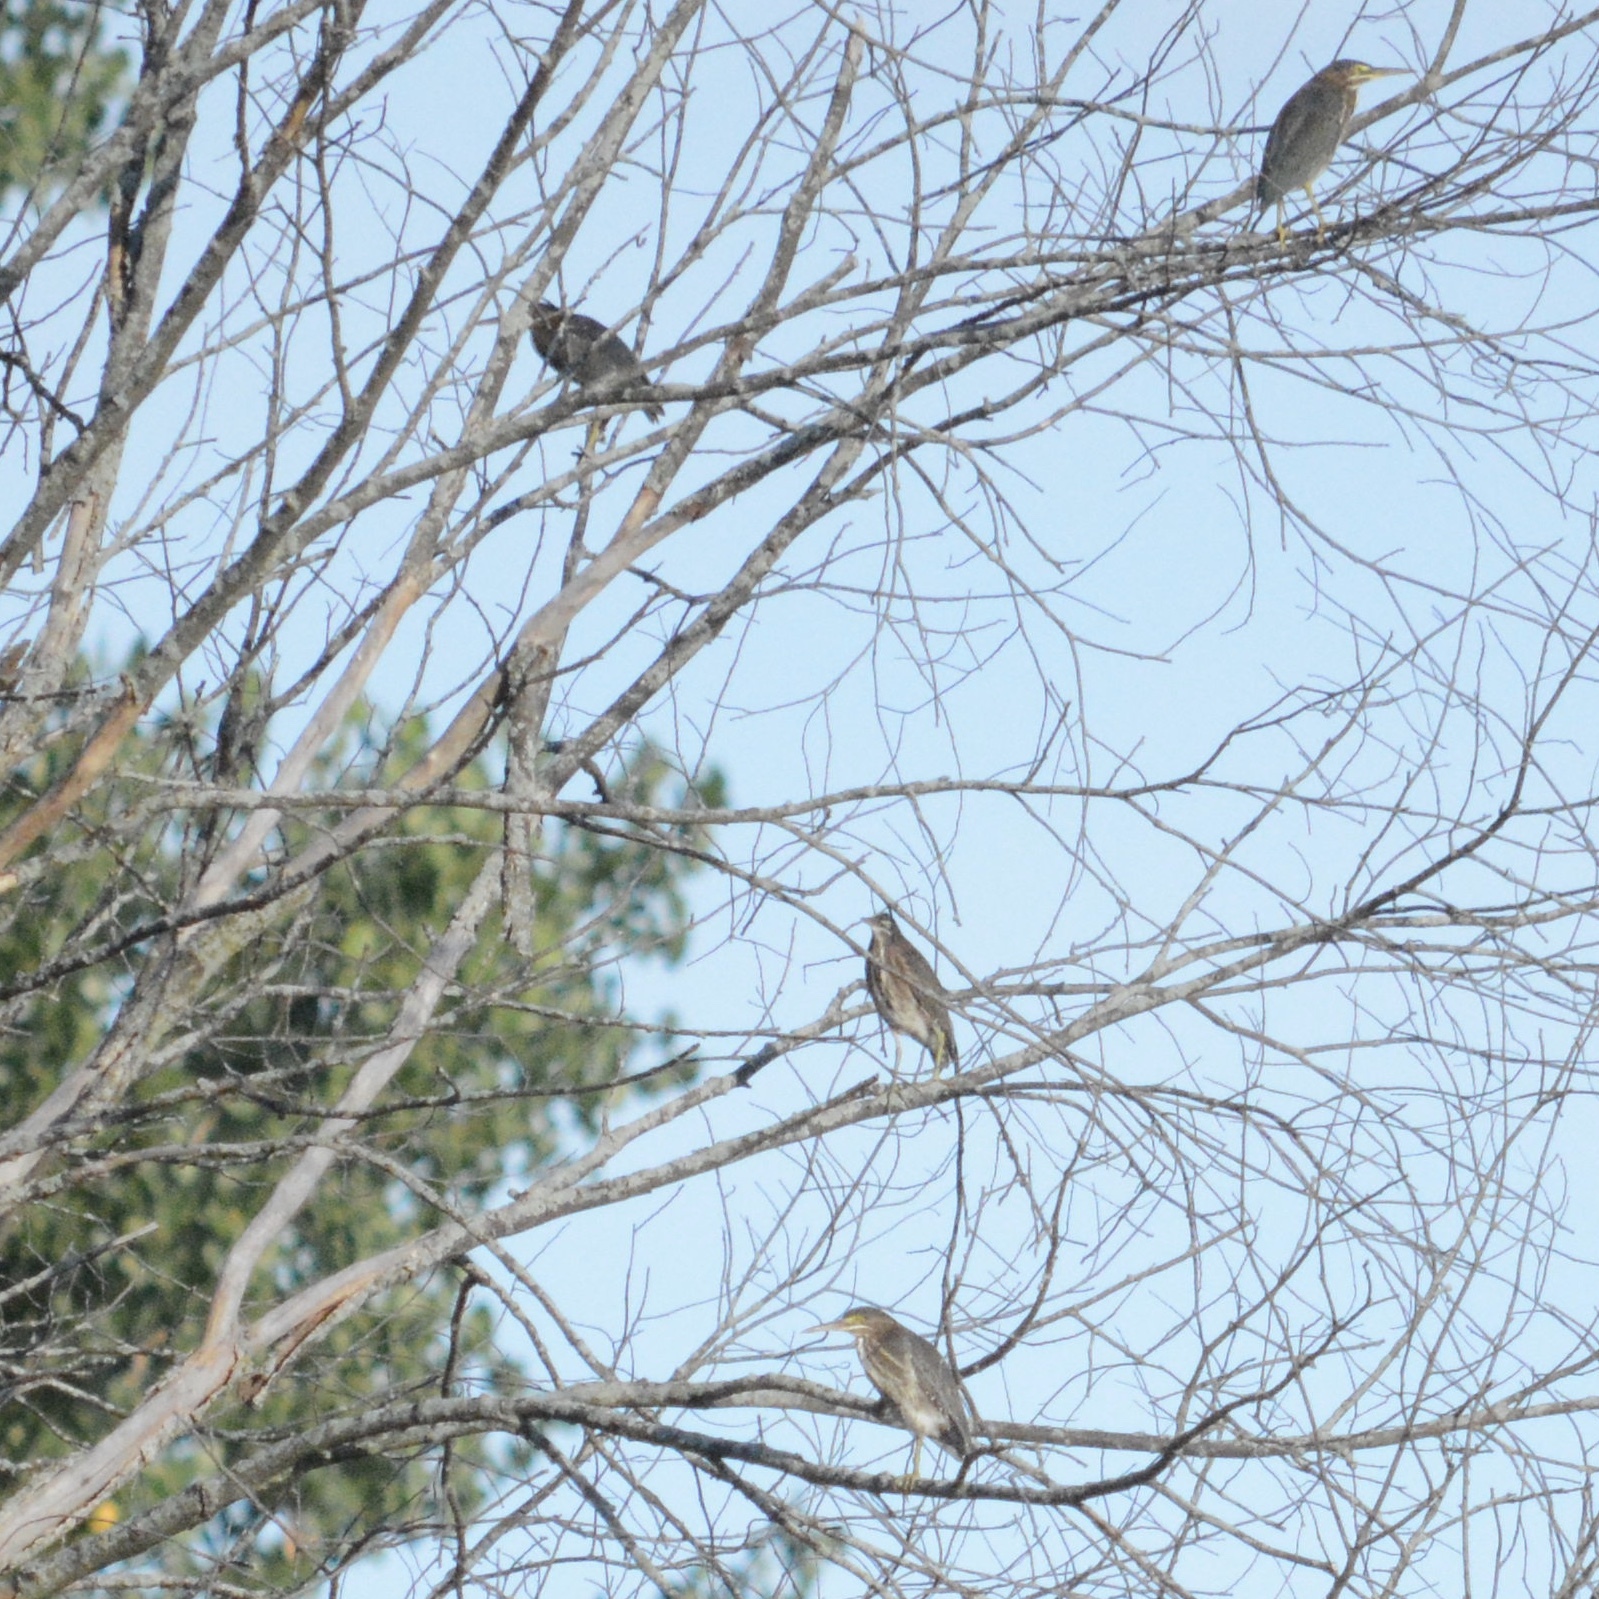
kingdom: Animalia
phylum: Chordata
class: Aves
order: Pelecaniformes
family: Ardeidae
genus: Butorides
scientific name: Butorides virescens
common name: Green heron
